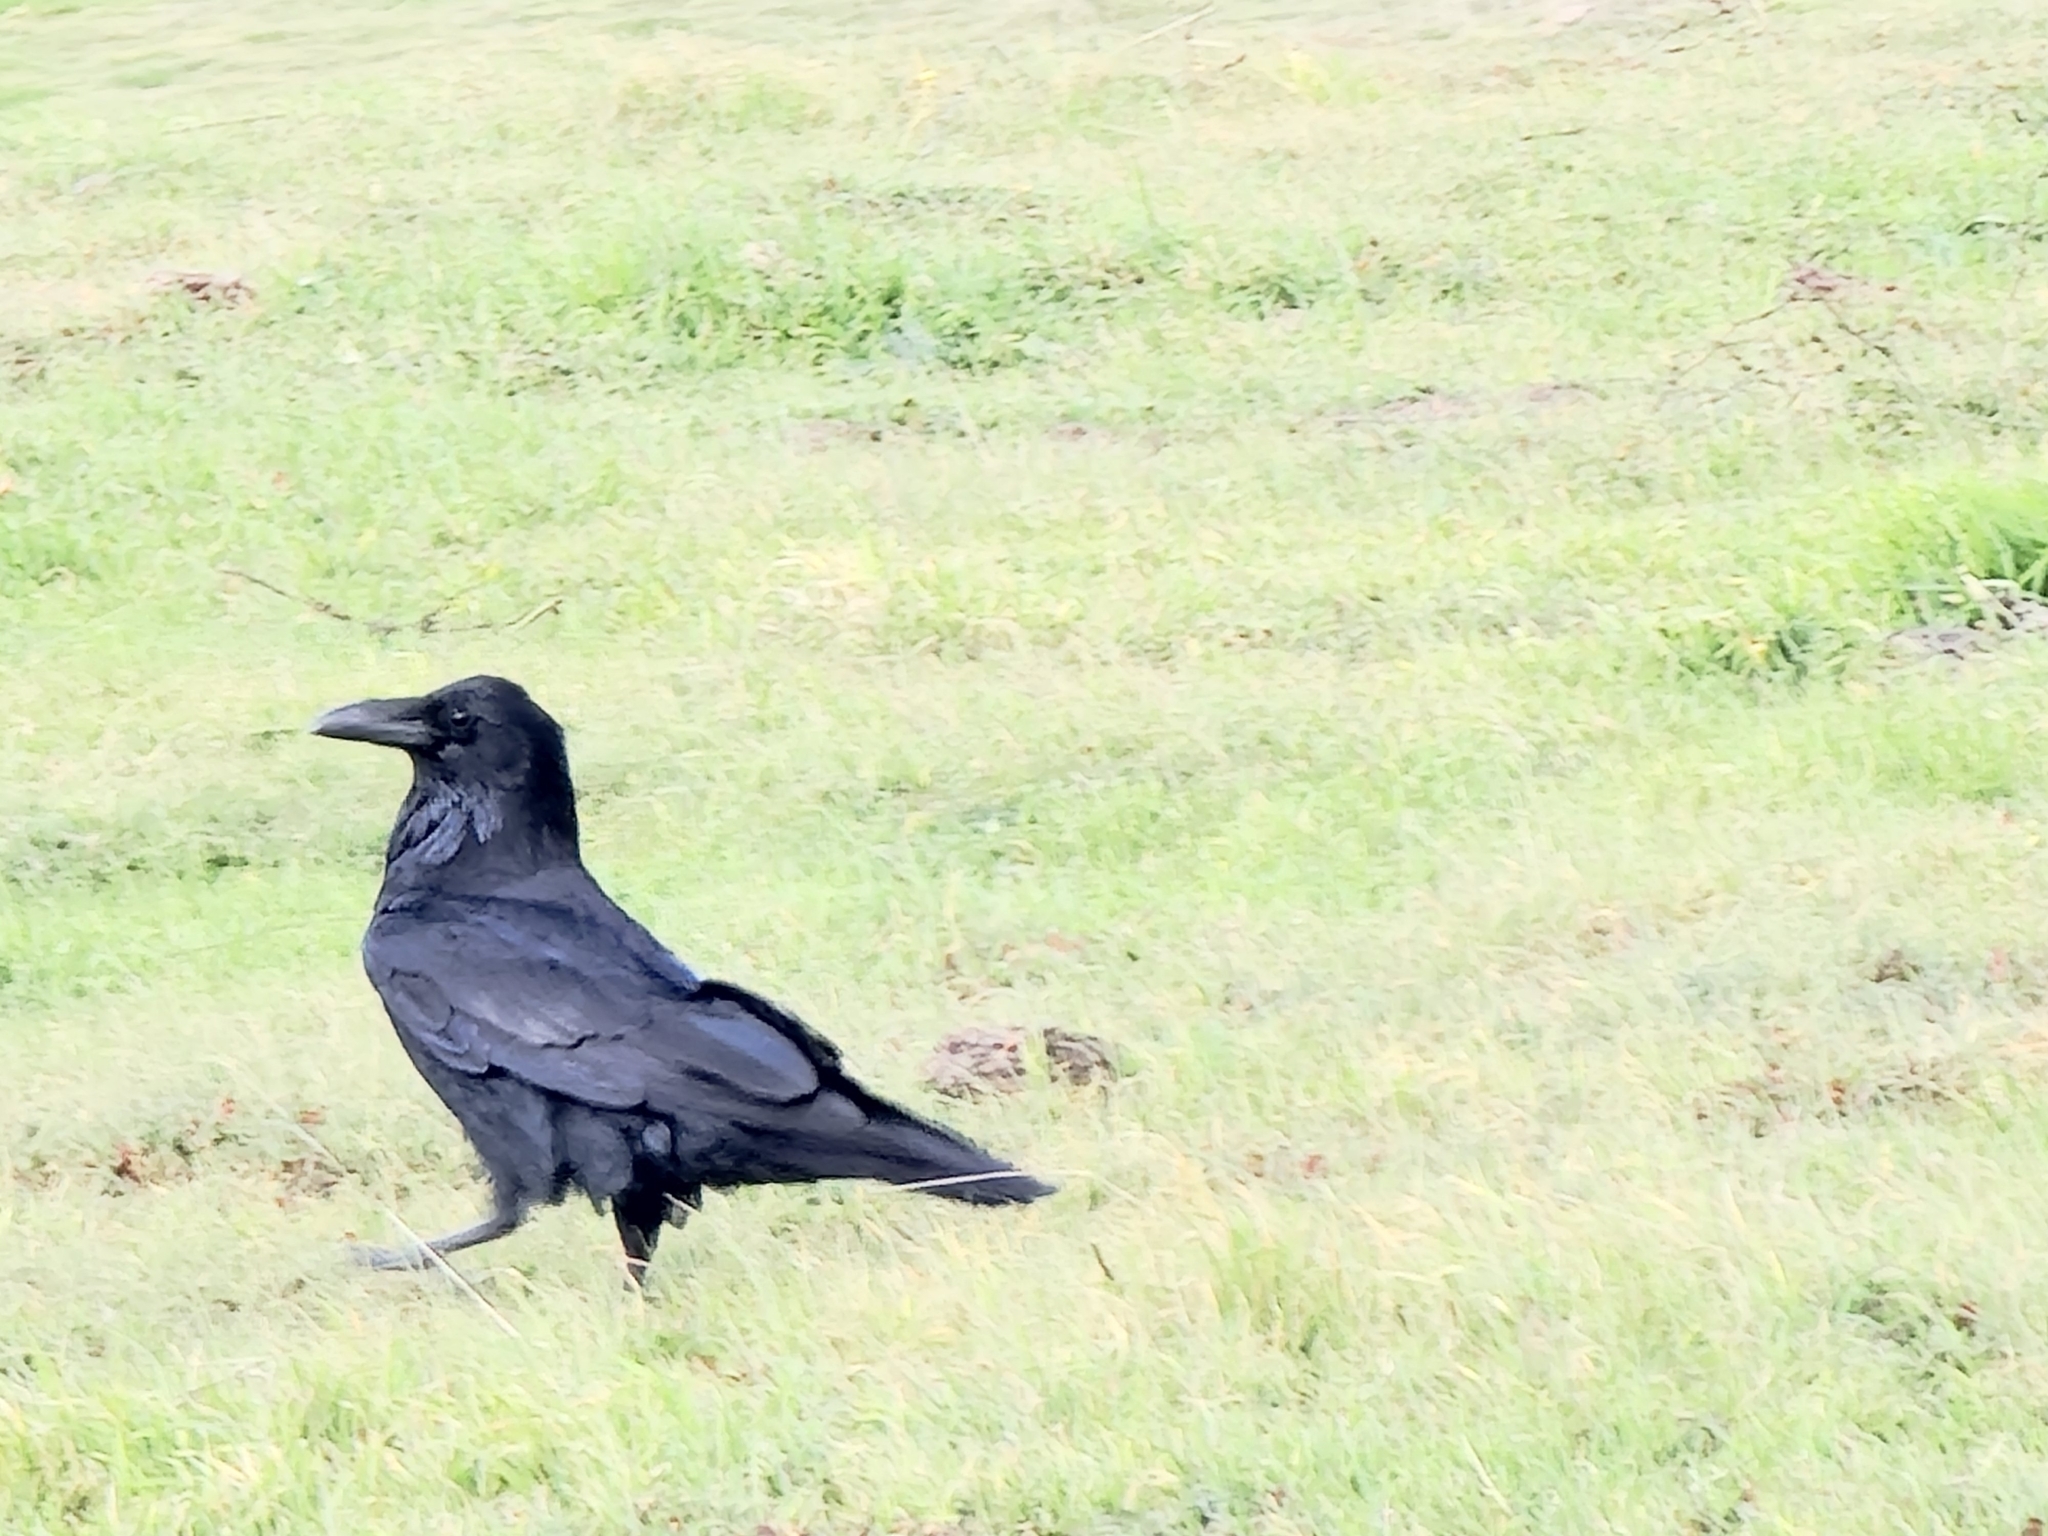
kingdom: Animalia
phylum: Chordata
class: Aves
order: Passeriformes
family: Corvidae
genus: Corvus
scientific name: Corvus corax
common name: Common raven
